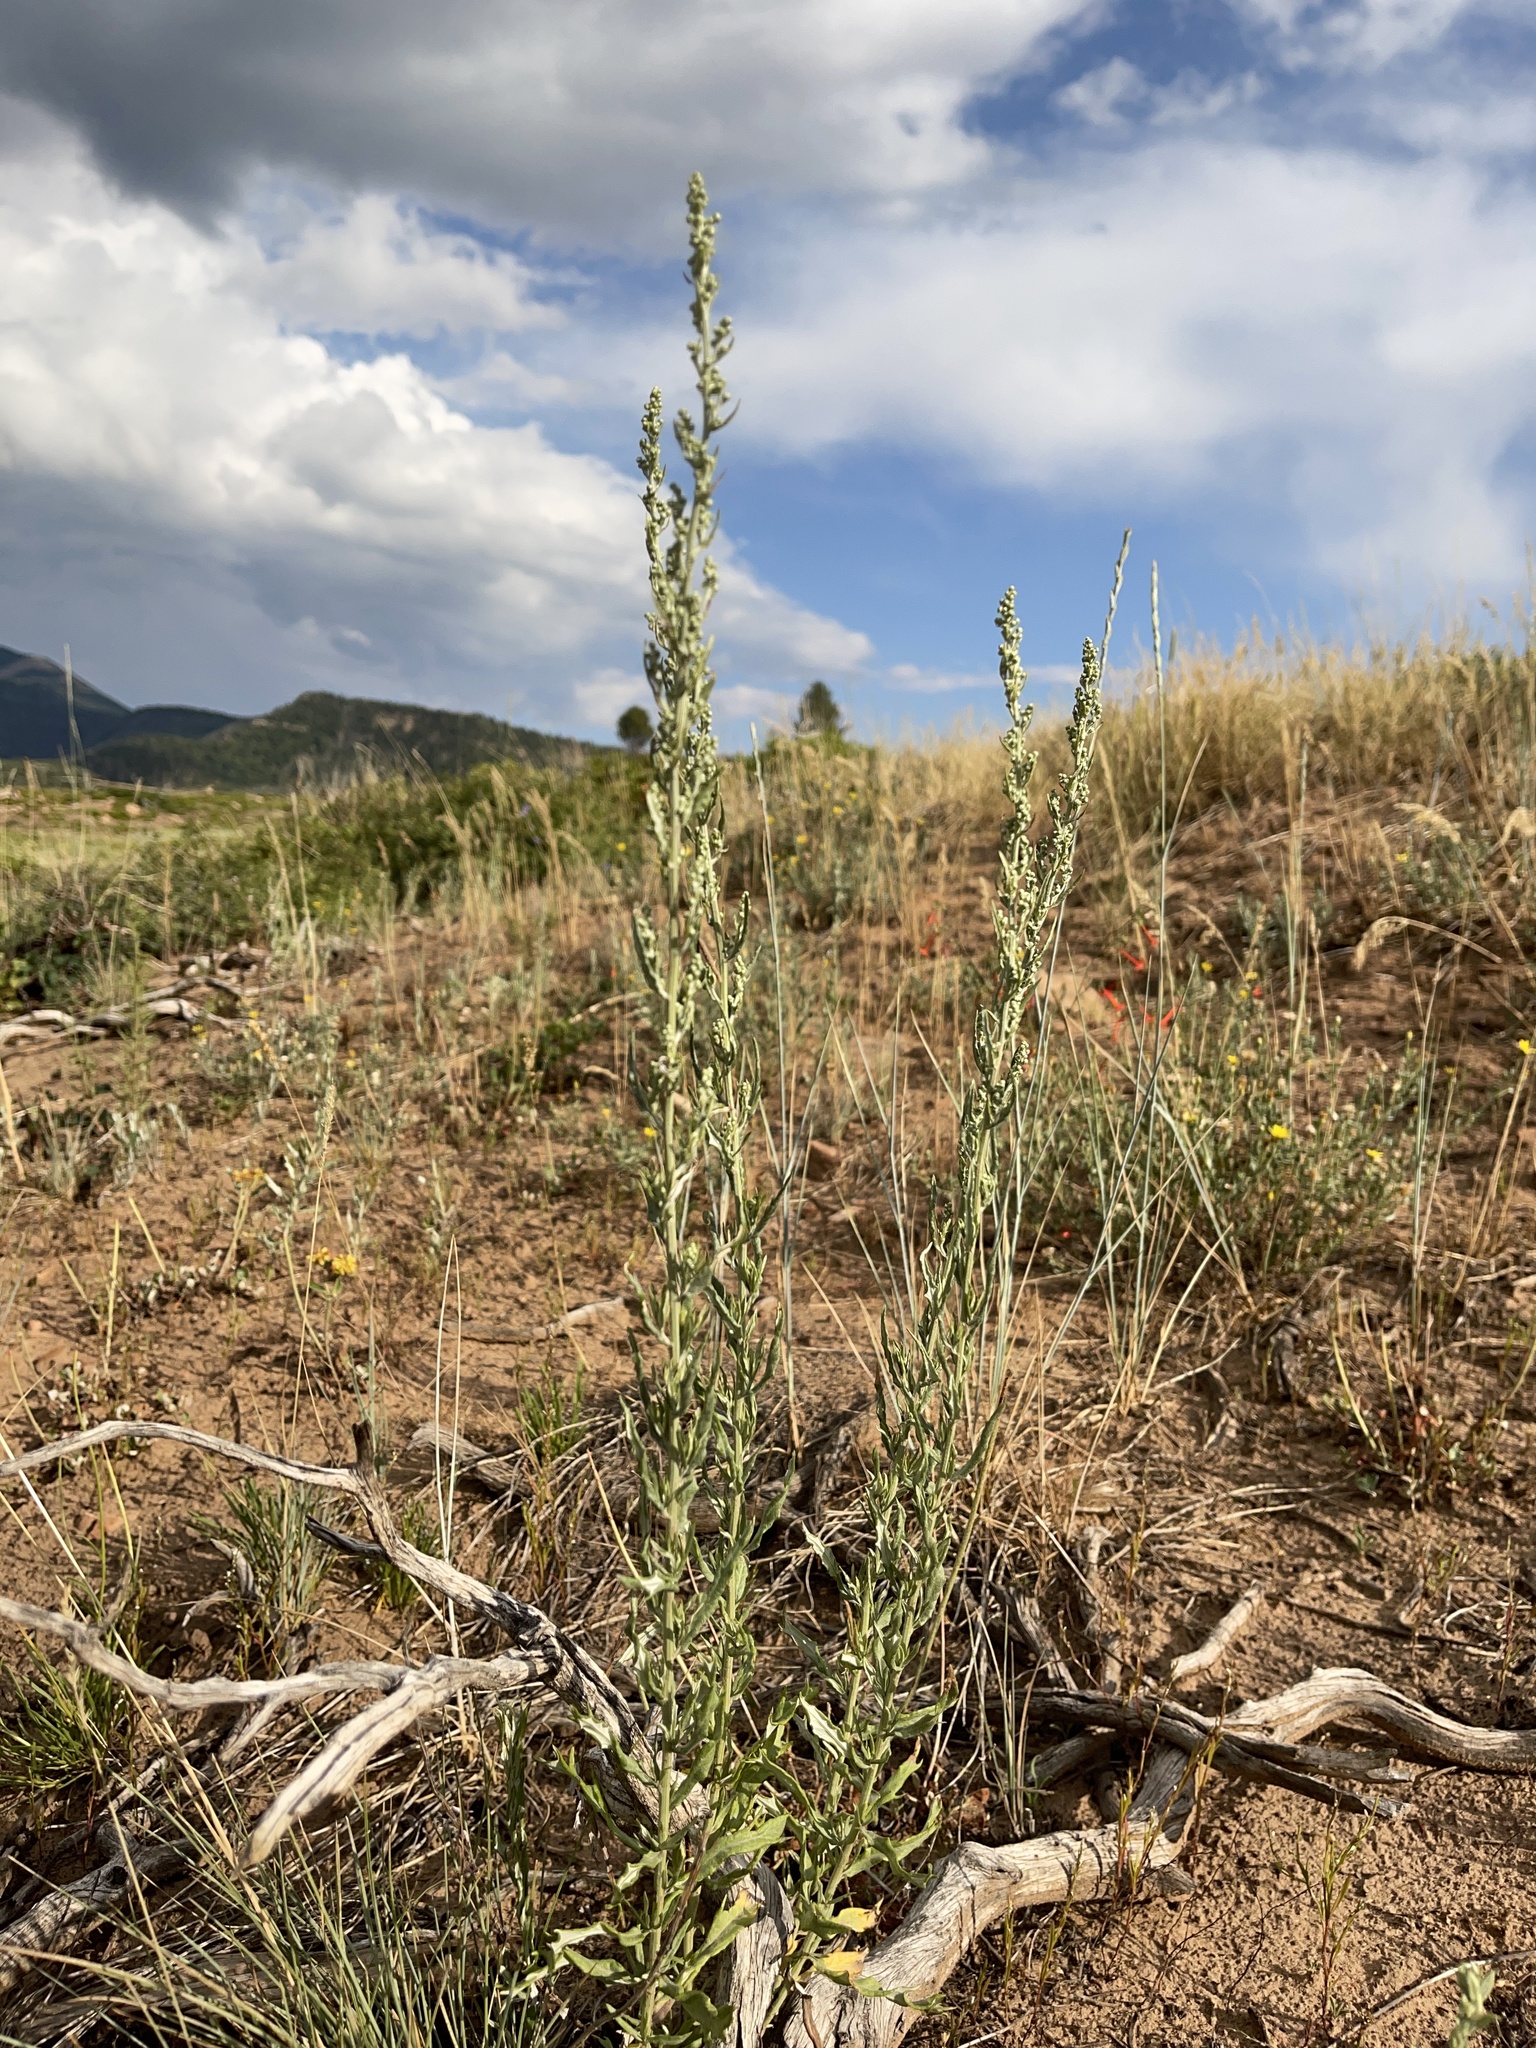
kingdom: Plantae
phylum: Tracheophyta
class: Magnoliopsida
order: Asterales
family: Asteraceae
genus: Artemisia
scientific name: Artemisia ludoviciana
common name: Western mugwort
